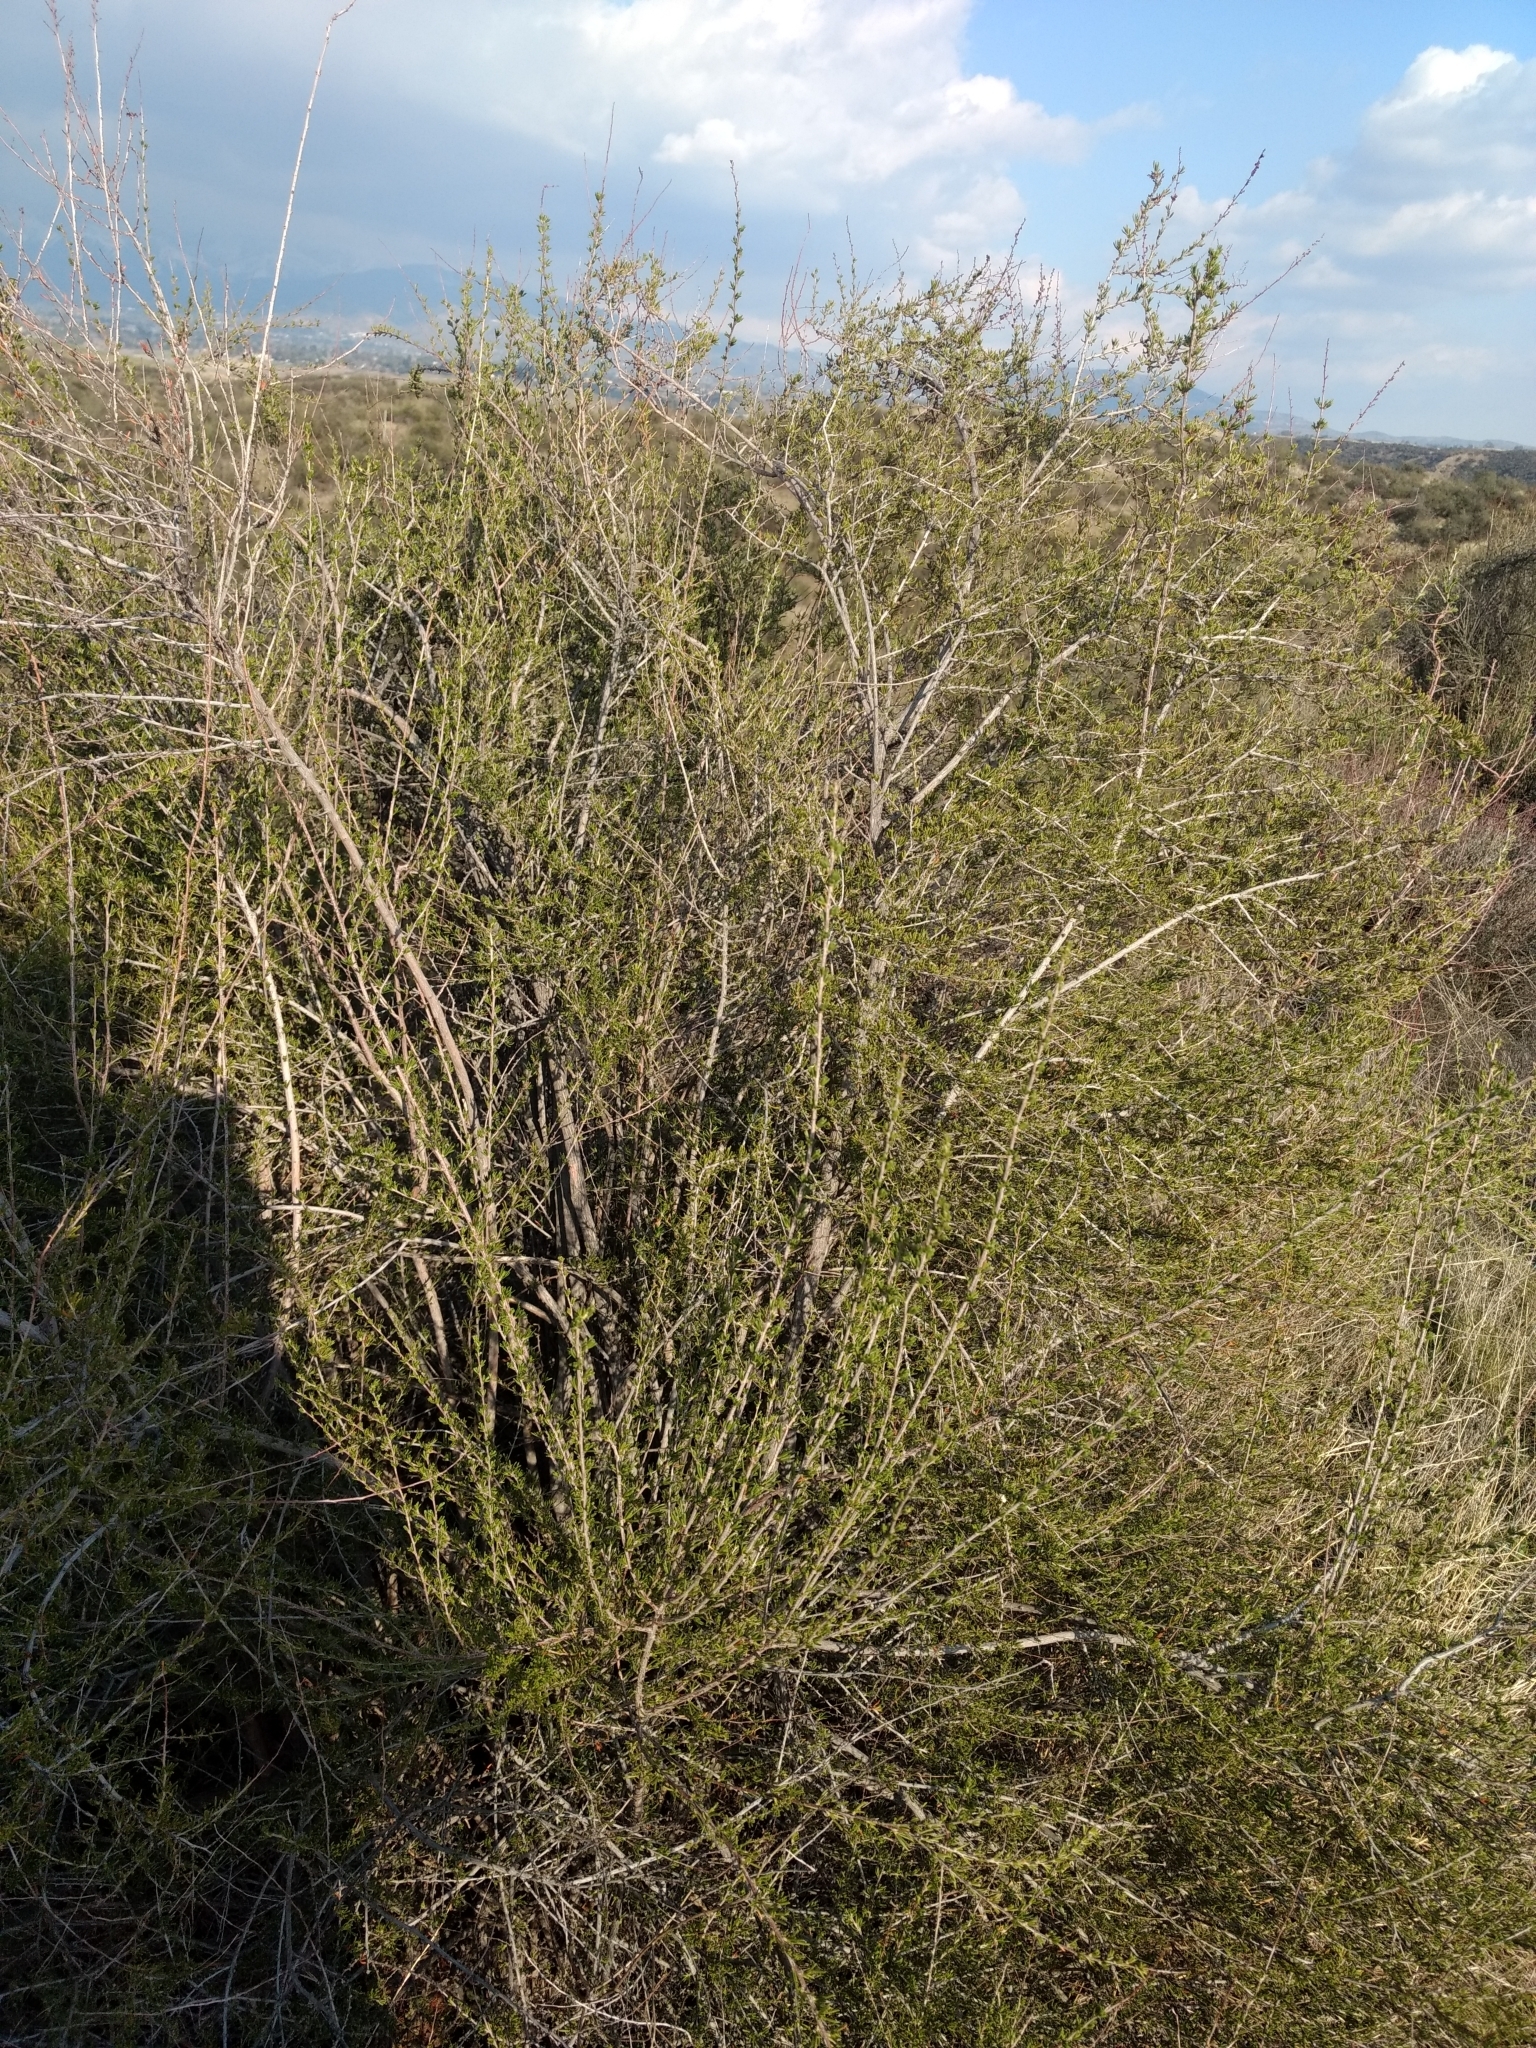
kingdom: Plantae
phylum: Tracheophyta
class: Magnoliopsida
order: Rosales
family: Rosaceae
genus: Adenostoma
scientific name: Adenostoma fasciculatum
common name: Chamise
